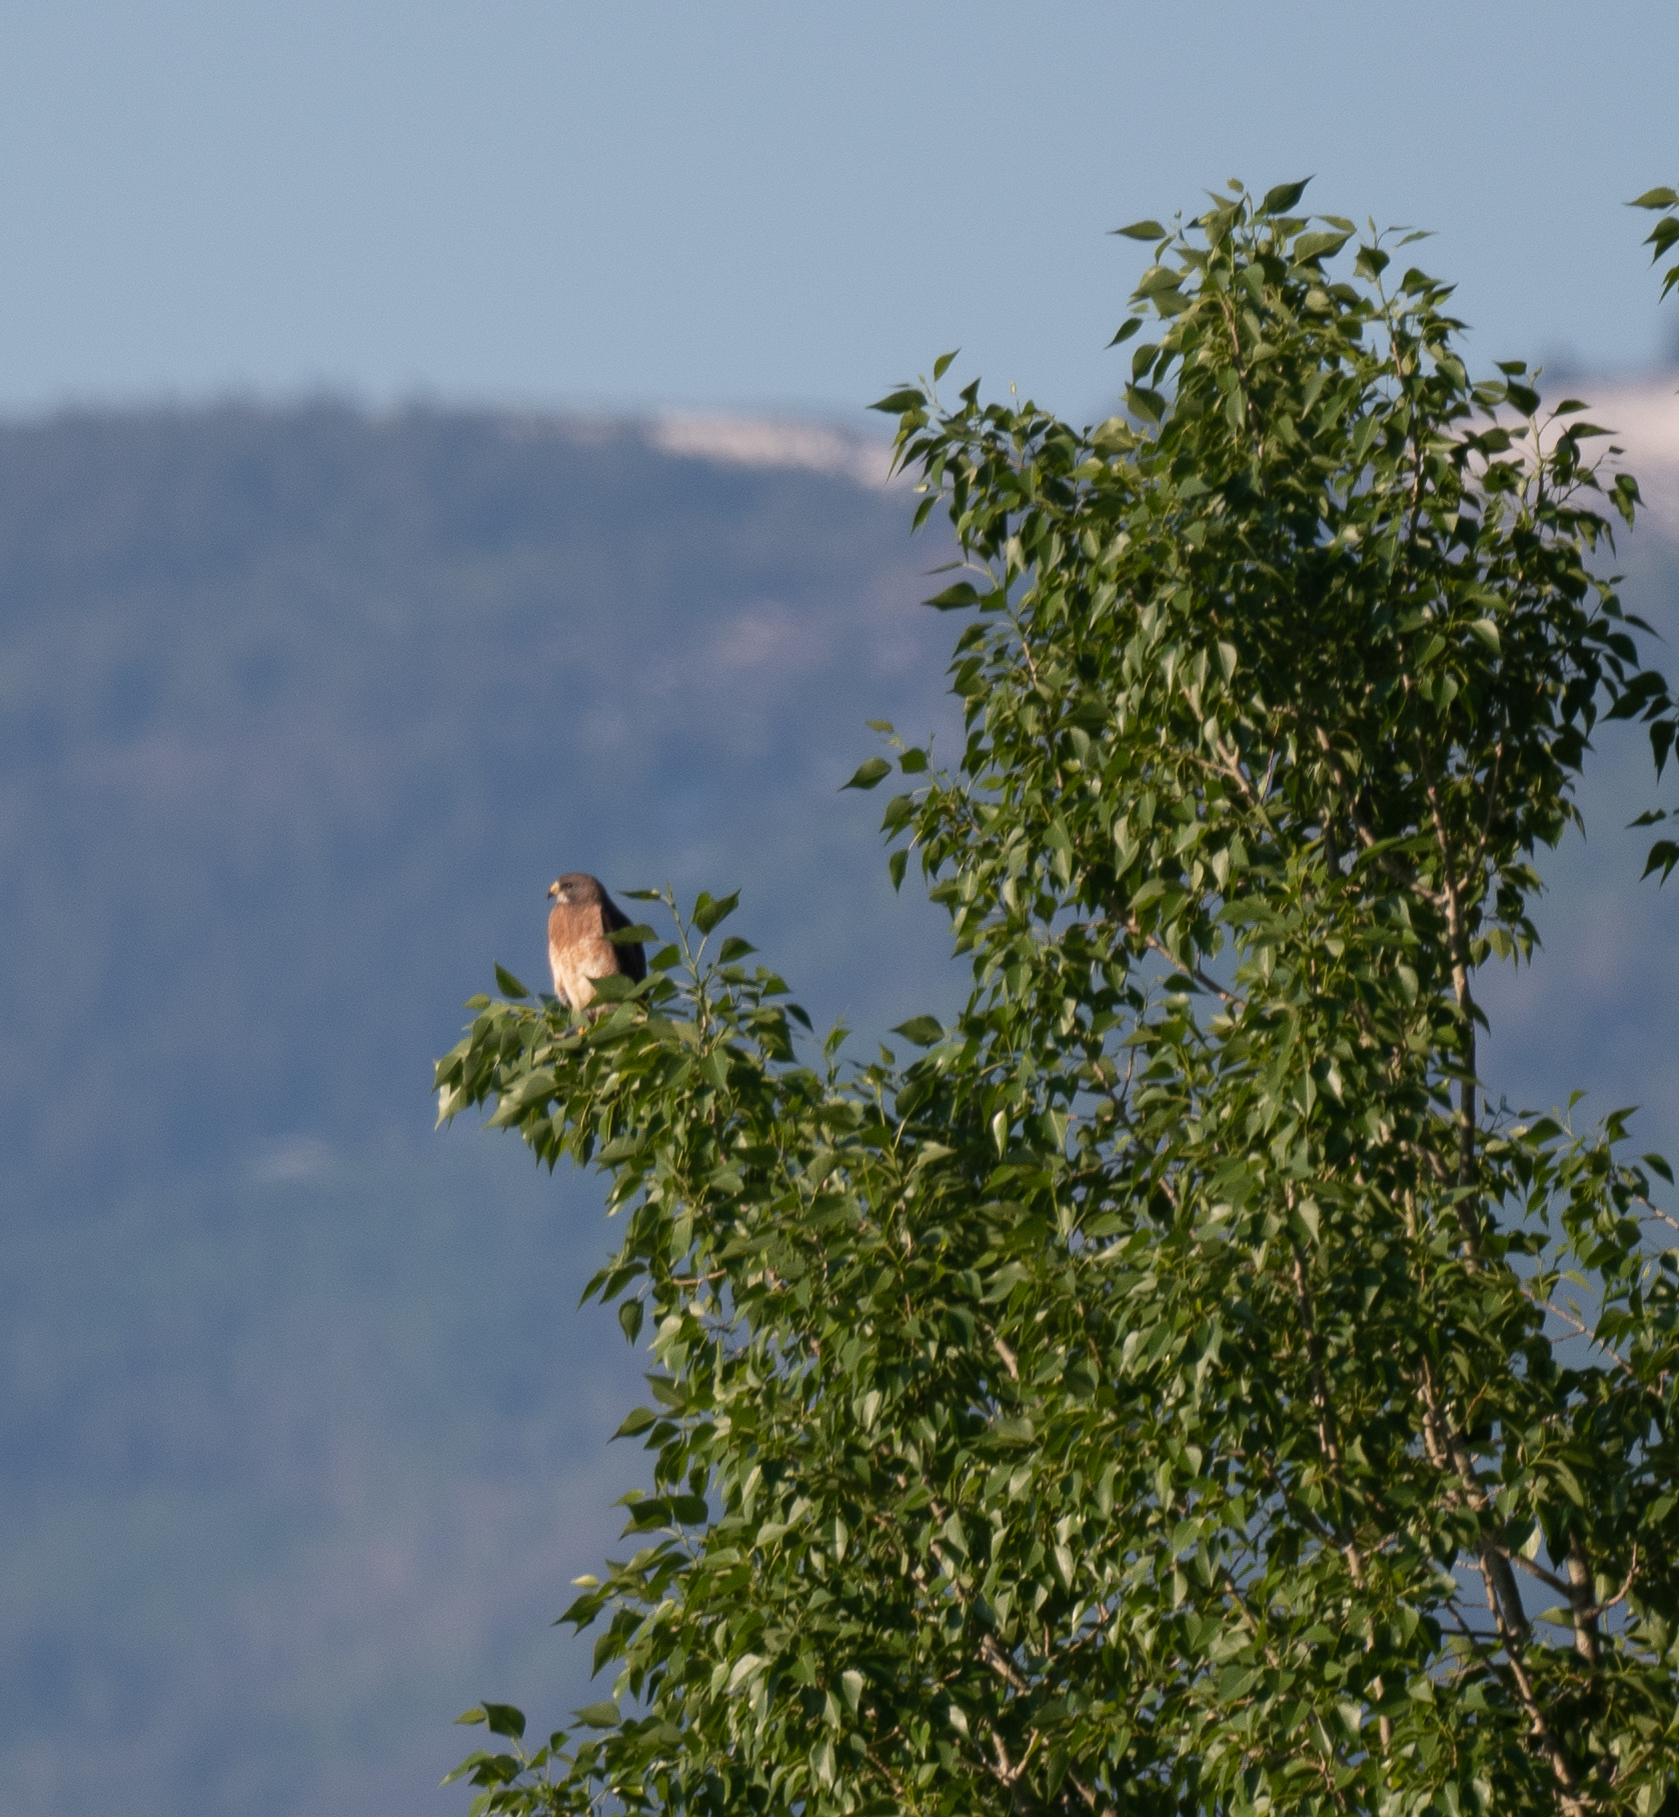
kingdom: Animalia
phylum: Chordata
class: Aves
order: Accipitriformes
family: Accipitridae
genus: Buteo
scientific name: Buteo swainsoni
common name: Swainson's hawk
